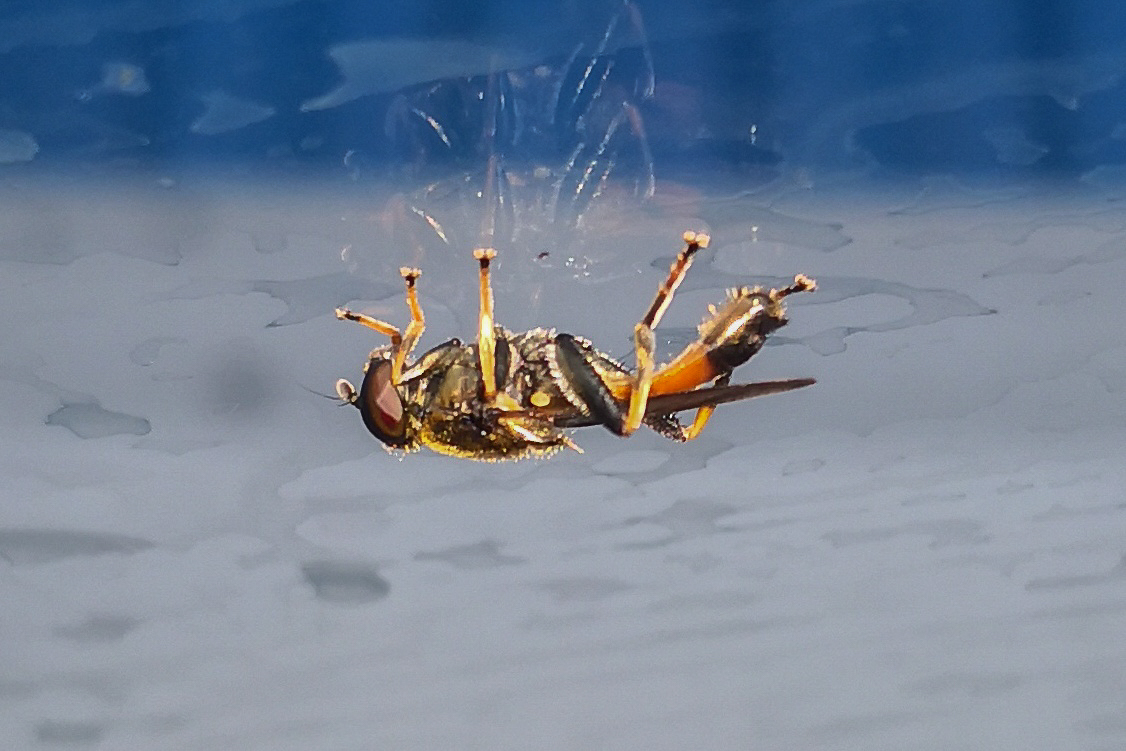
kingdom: Animalia
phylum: Arthropoda
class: Insecta
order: Diptera
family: Syrphidae
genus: Xylota
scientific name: Xylota segnis
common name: Brown-toed forest fly
